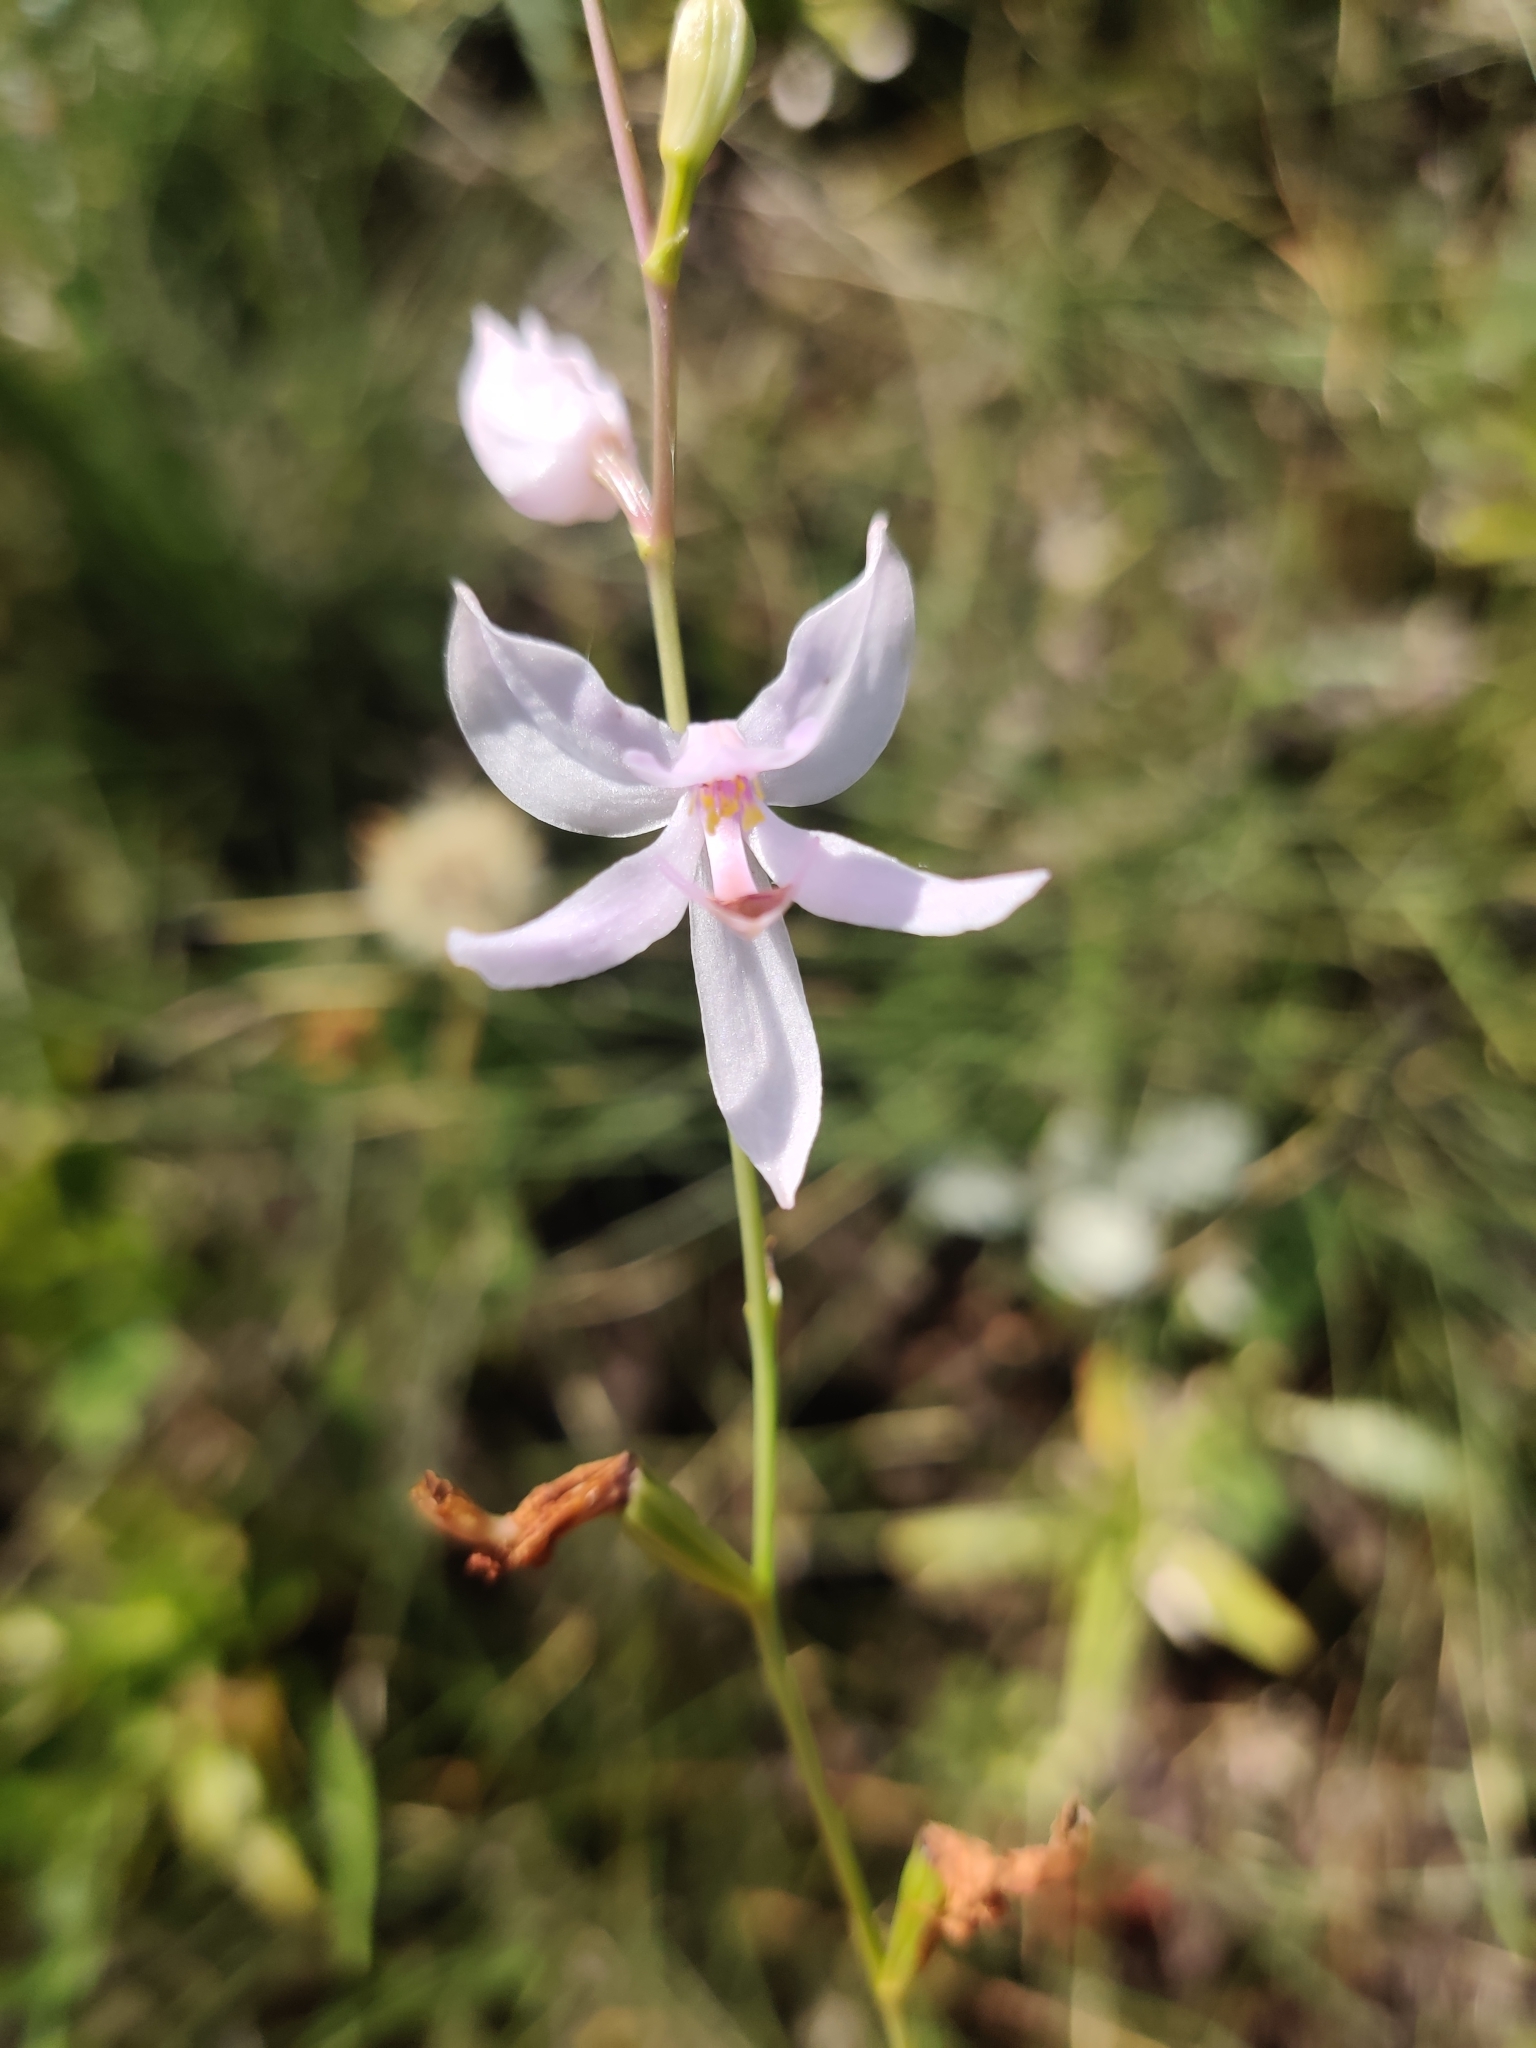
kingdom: Plantae
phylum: Tracheophyta
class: Liliopsida
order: Asparagales
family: Orchidaceae
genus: Calopogon
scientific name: Calopogon pallidus
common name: Pale grasspink
